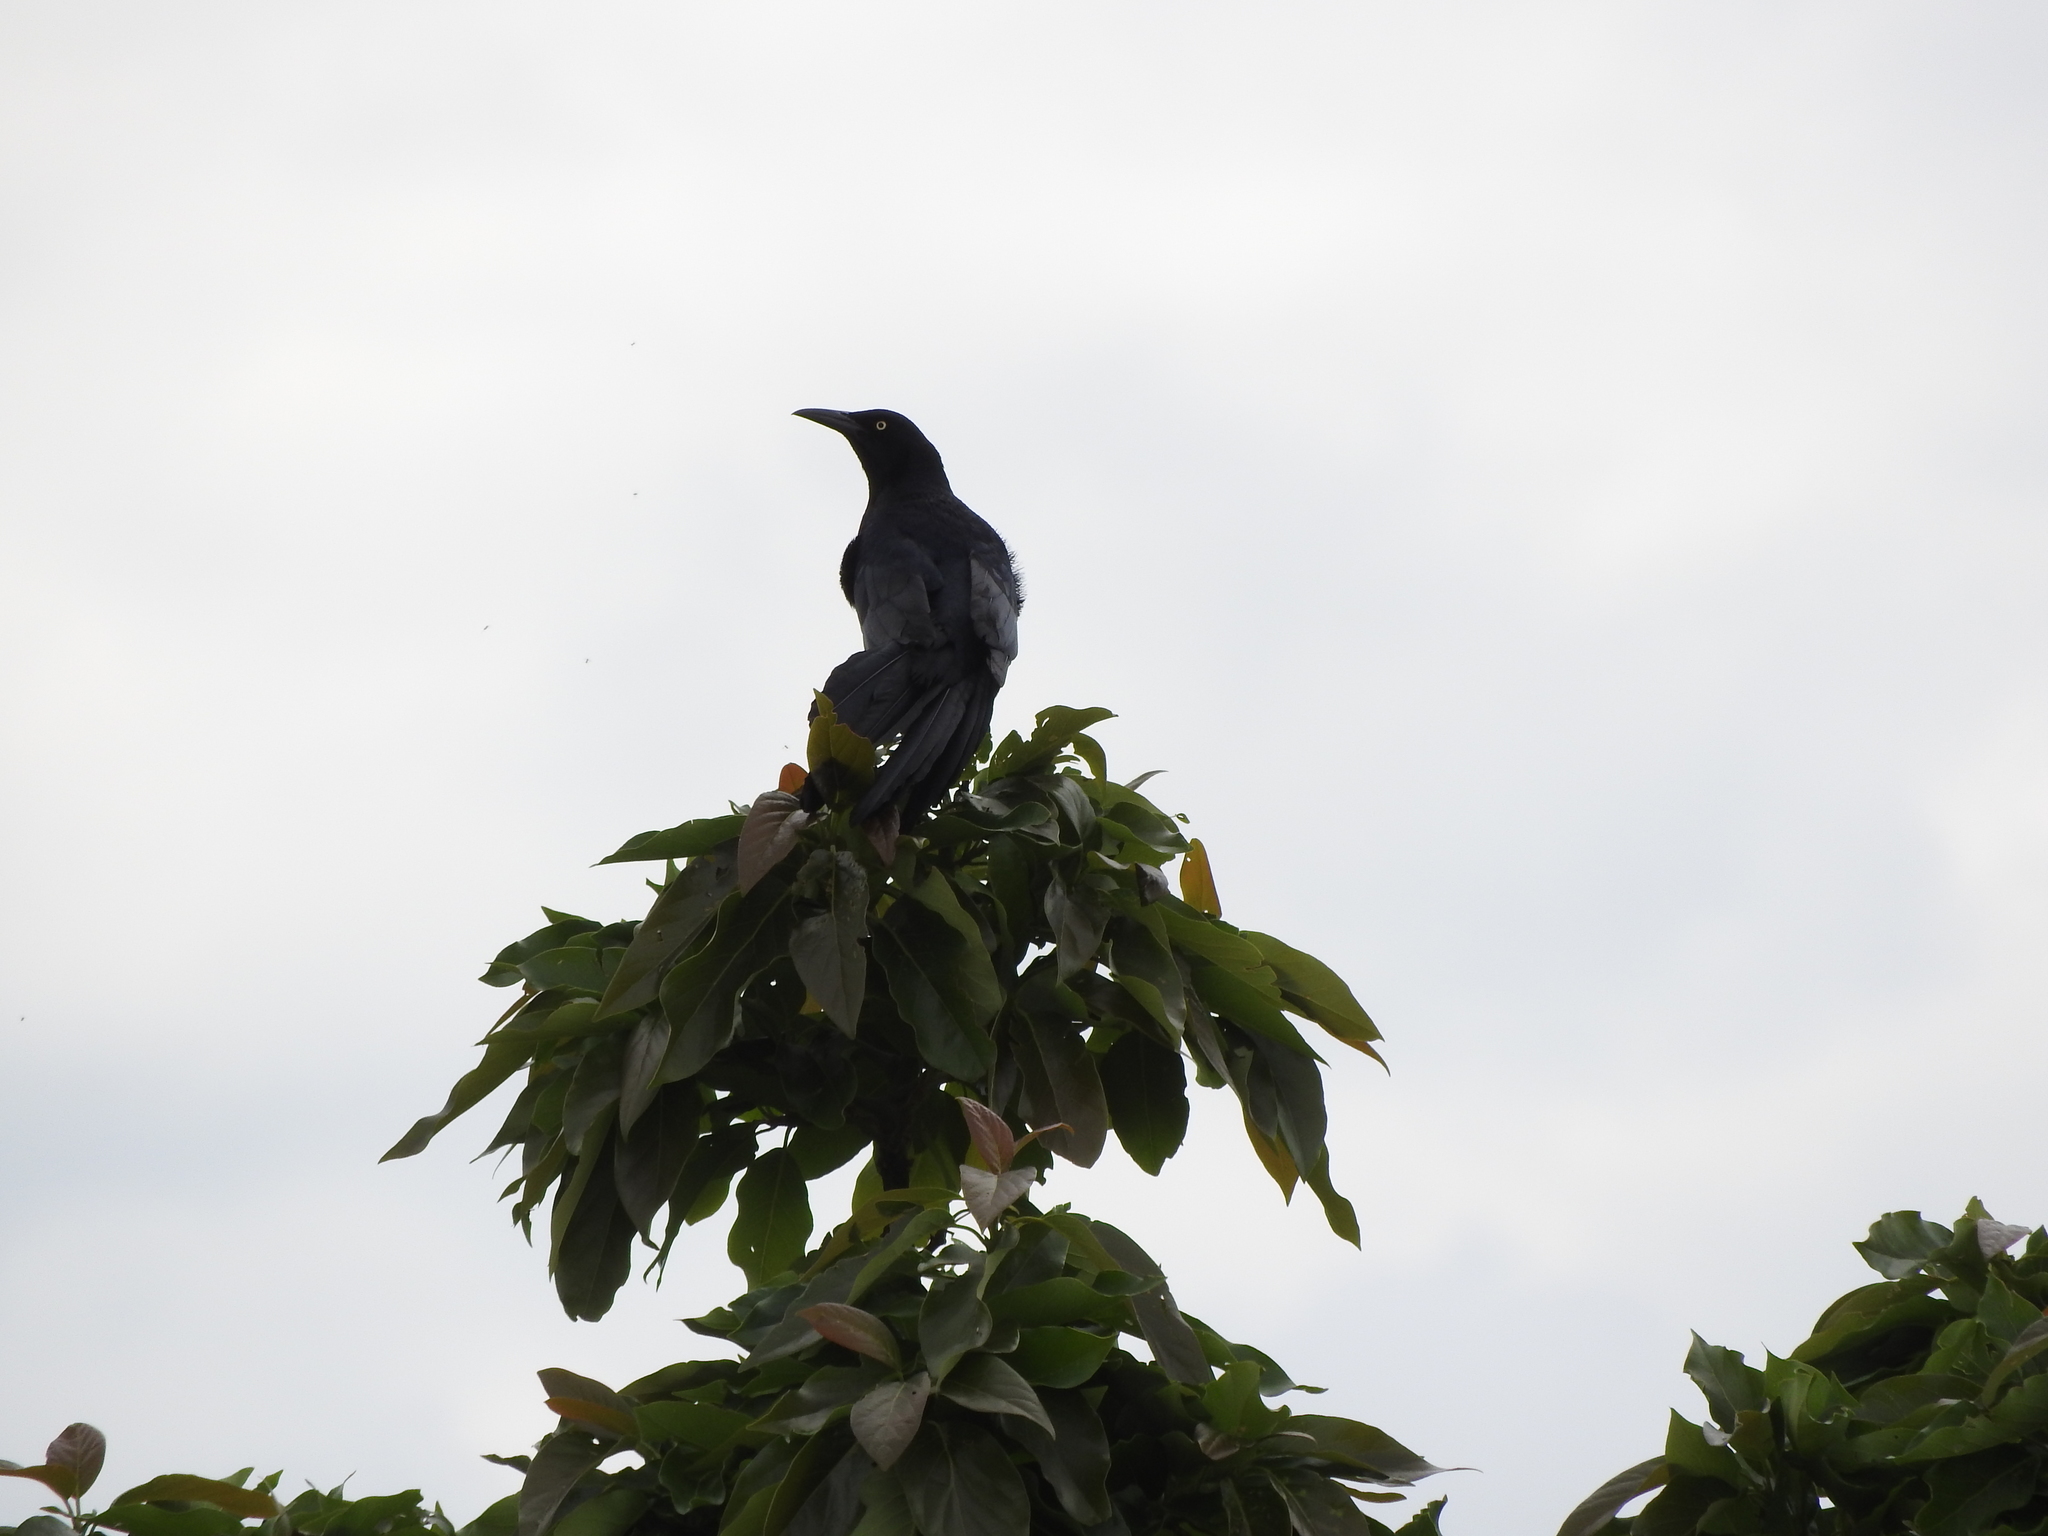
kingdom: Animalia
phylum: Chordata
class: Aves
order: Passeriformes
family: Icteridae
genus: Quiscalus
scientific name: Quiscalus mexicanus
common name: Great-tailed grackle
